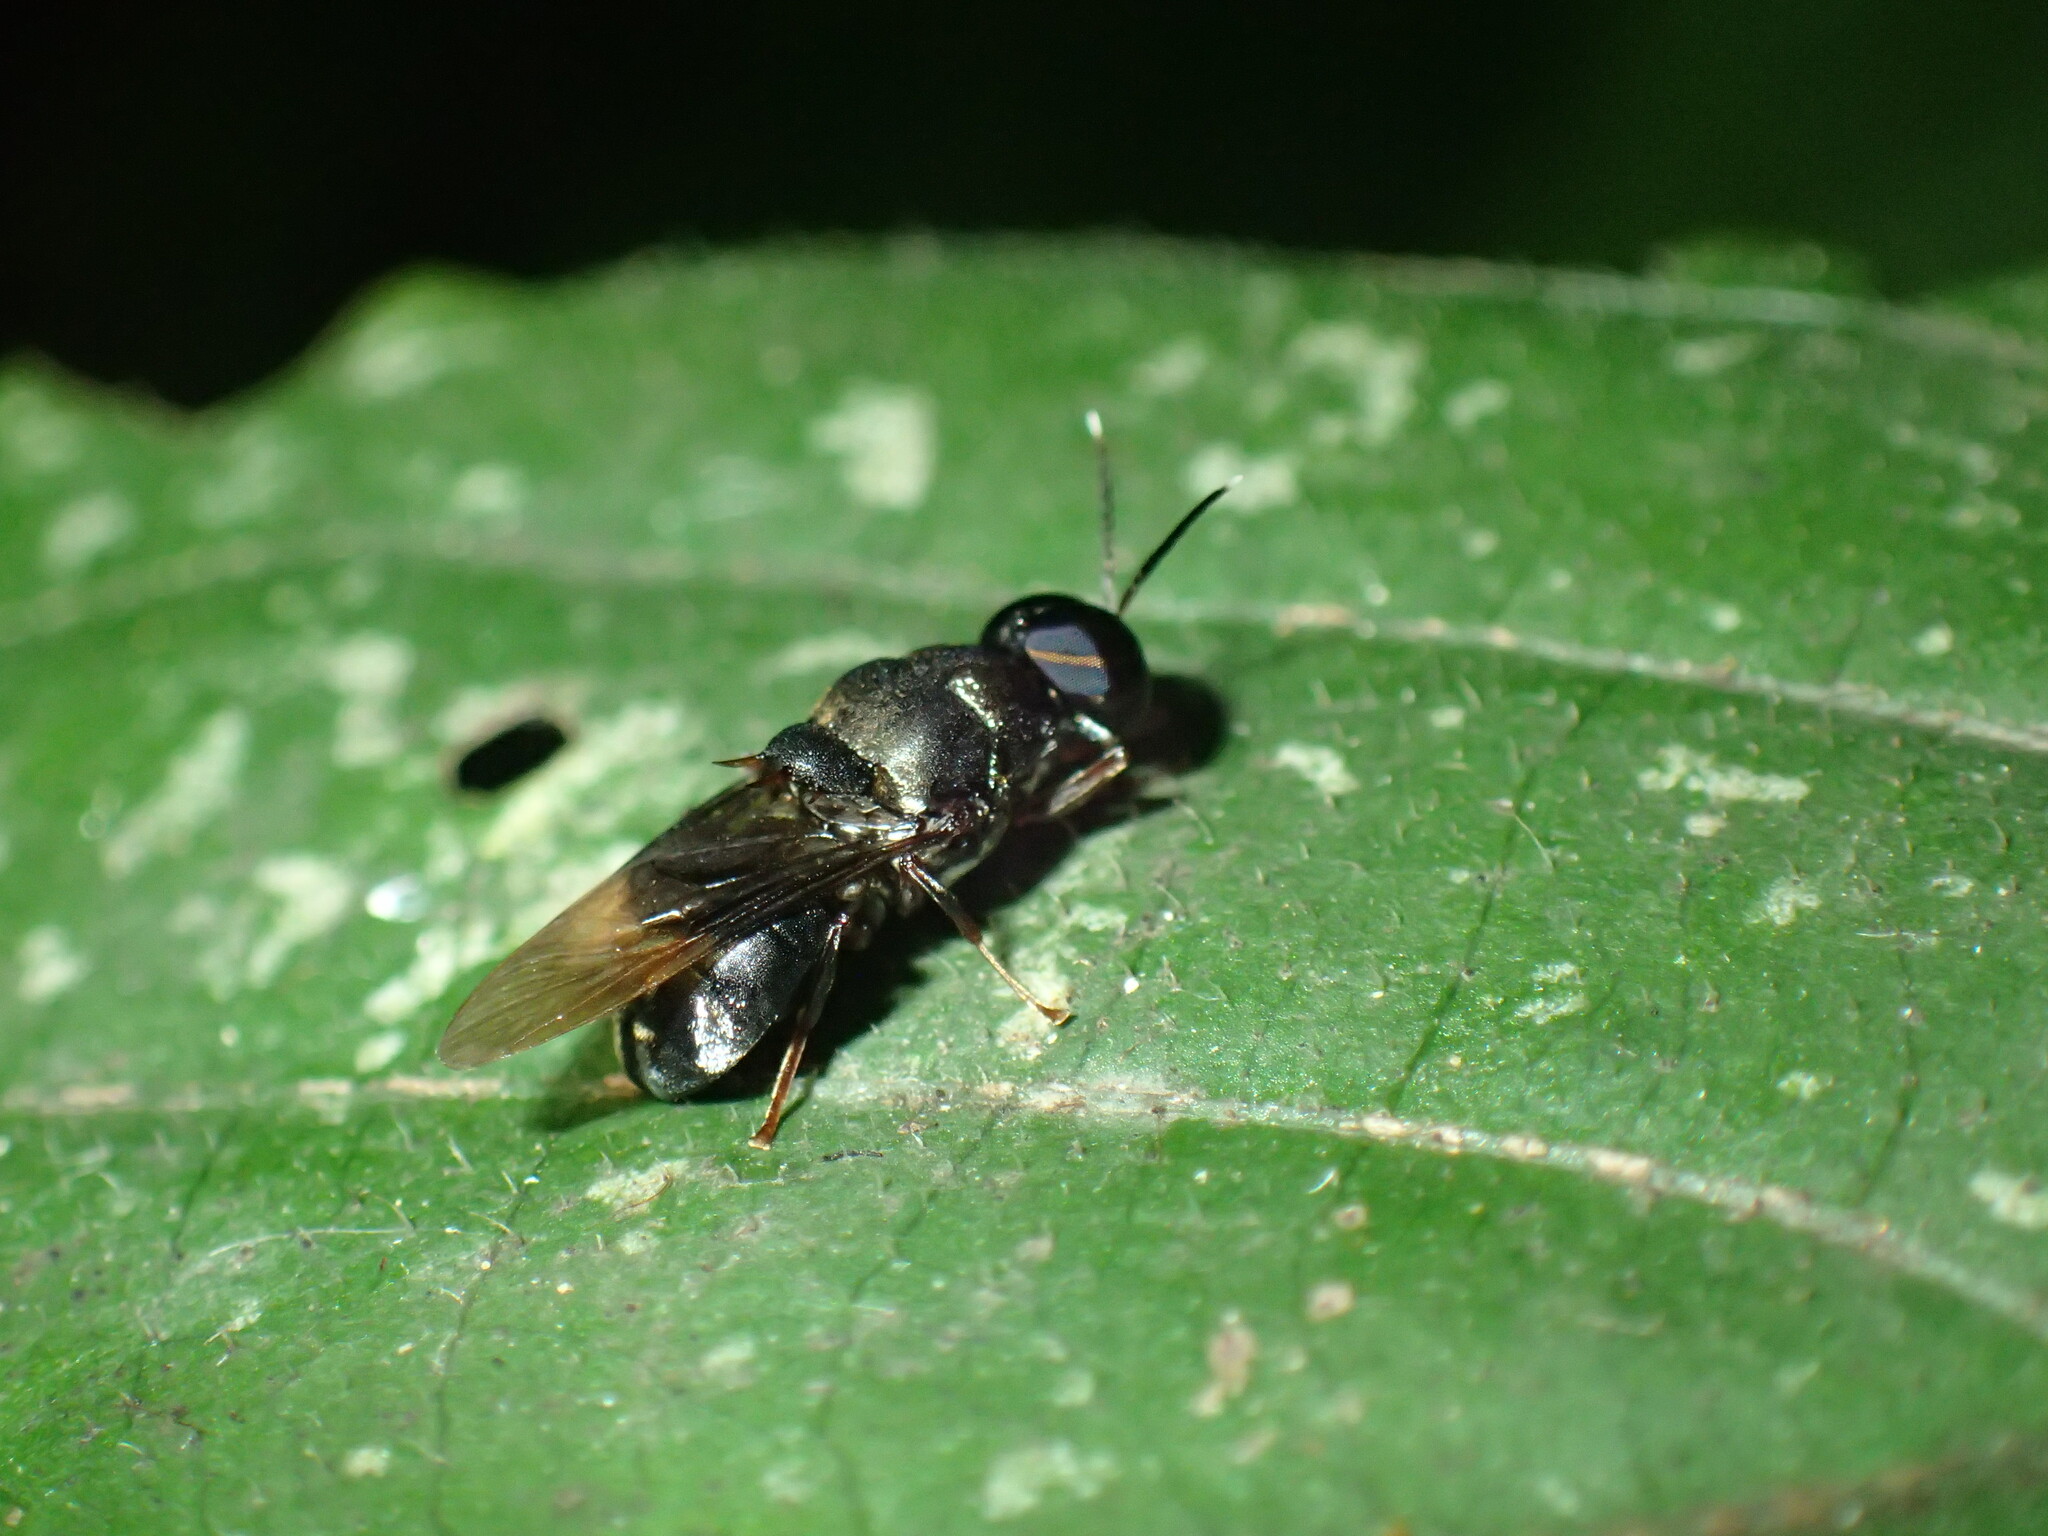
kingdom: Animalia
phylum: Arthropoda
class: Insecta
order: Diptera
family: Stratiomyidae
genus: Isomerocera
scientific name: Isomerocera quadrilineata
